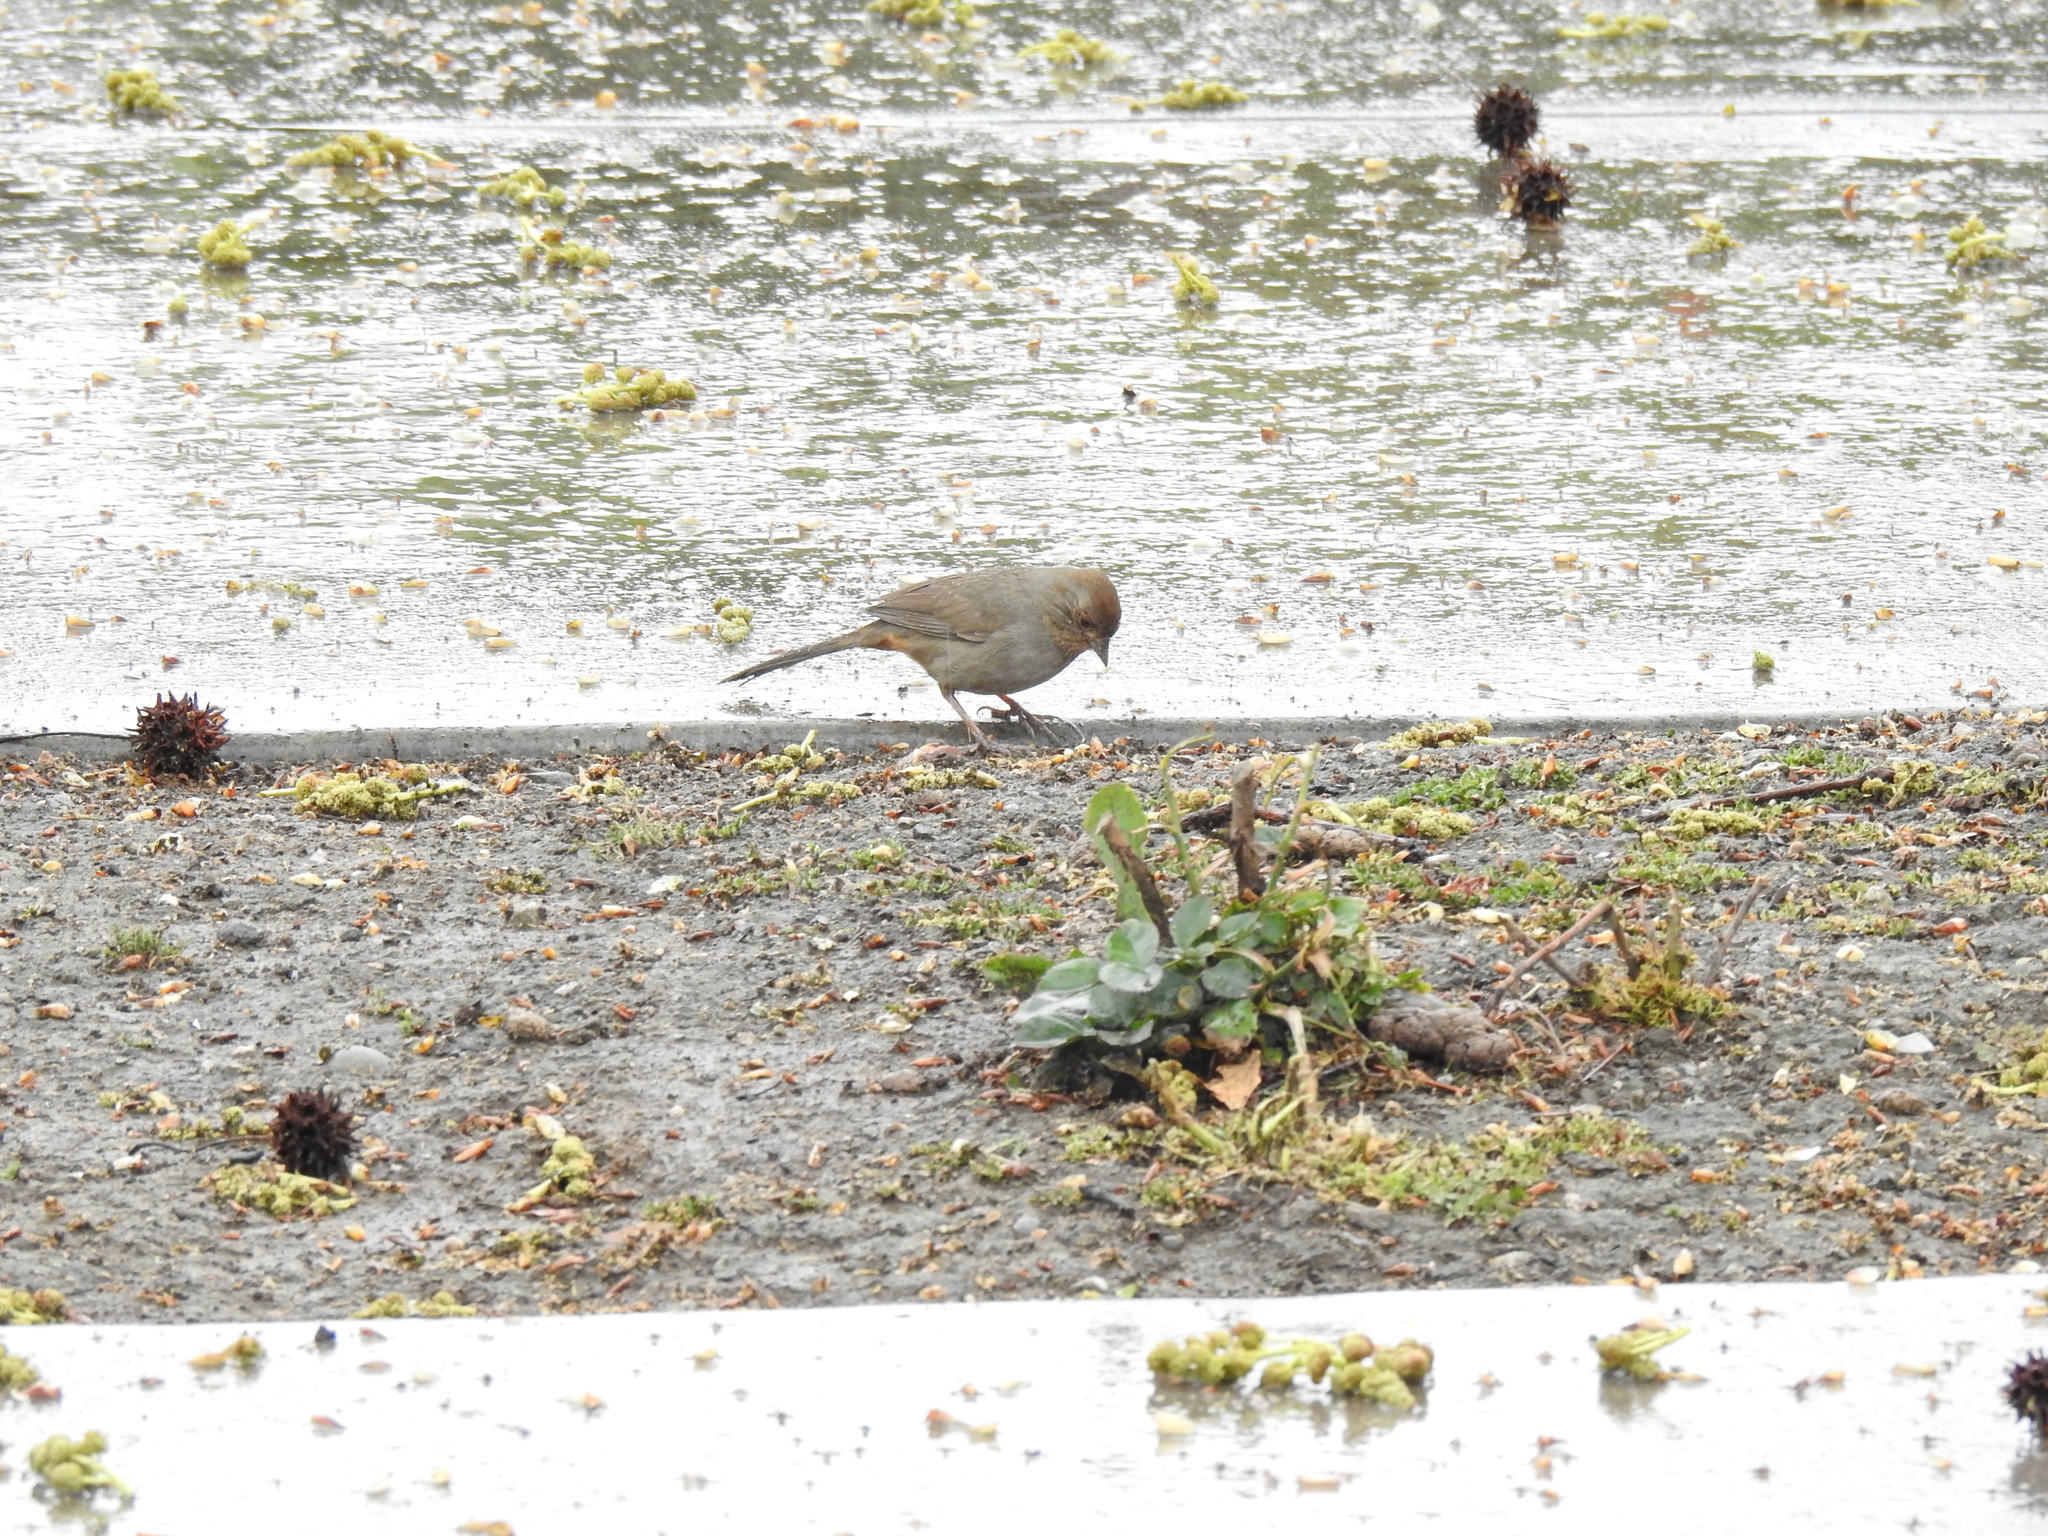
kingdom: Animalia
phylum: Chordata
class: Aves
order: Passeriformes
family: Passerellidae
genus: Melozone
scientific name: Melozone crissalis
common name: California towhee
